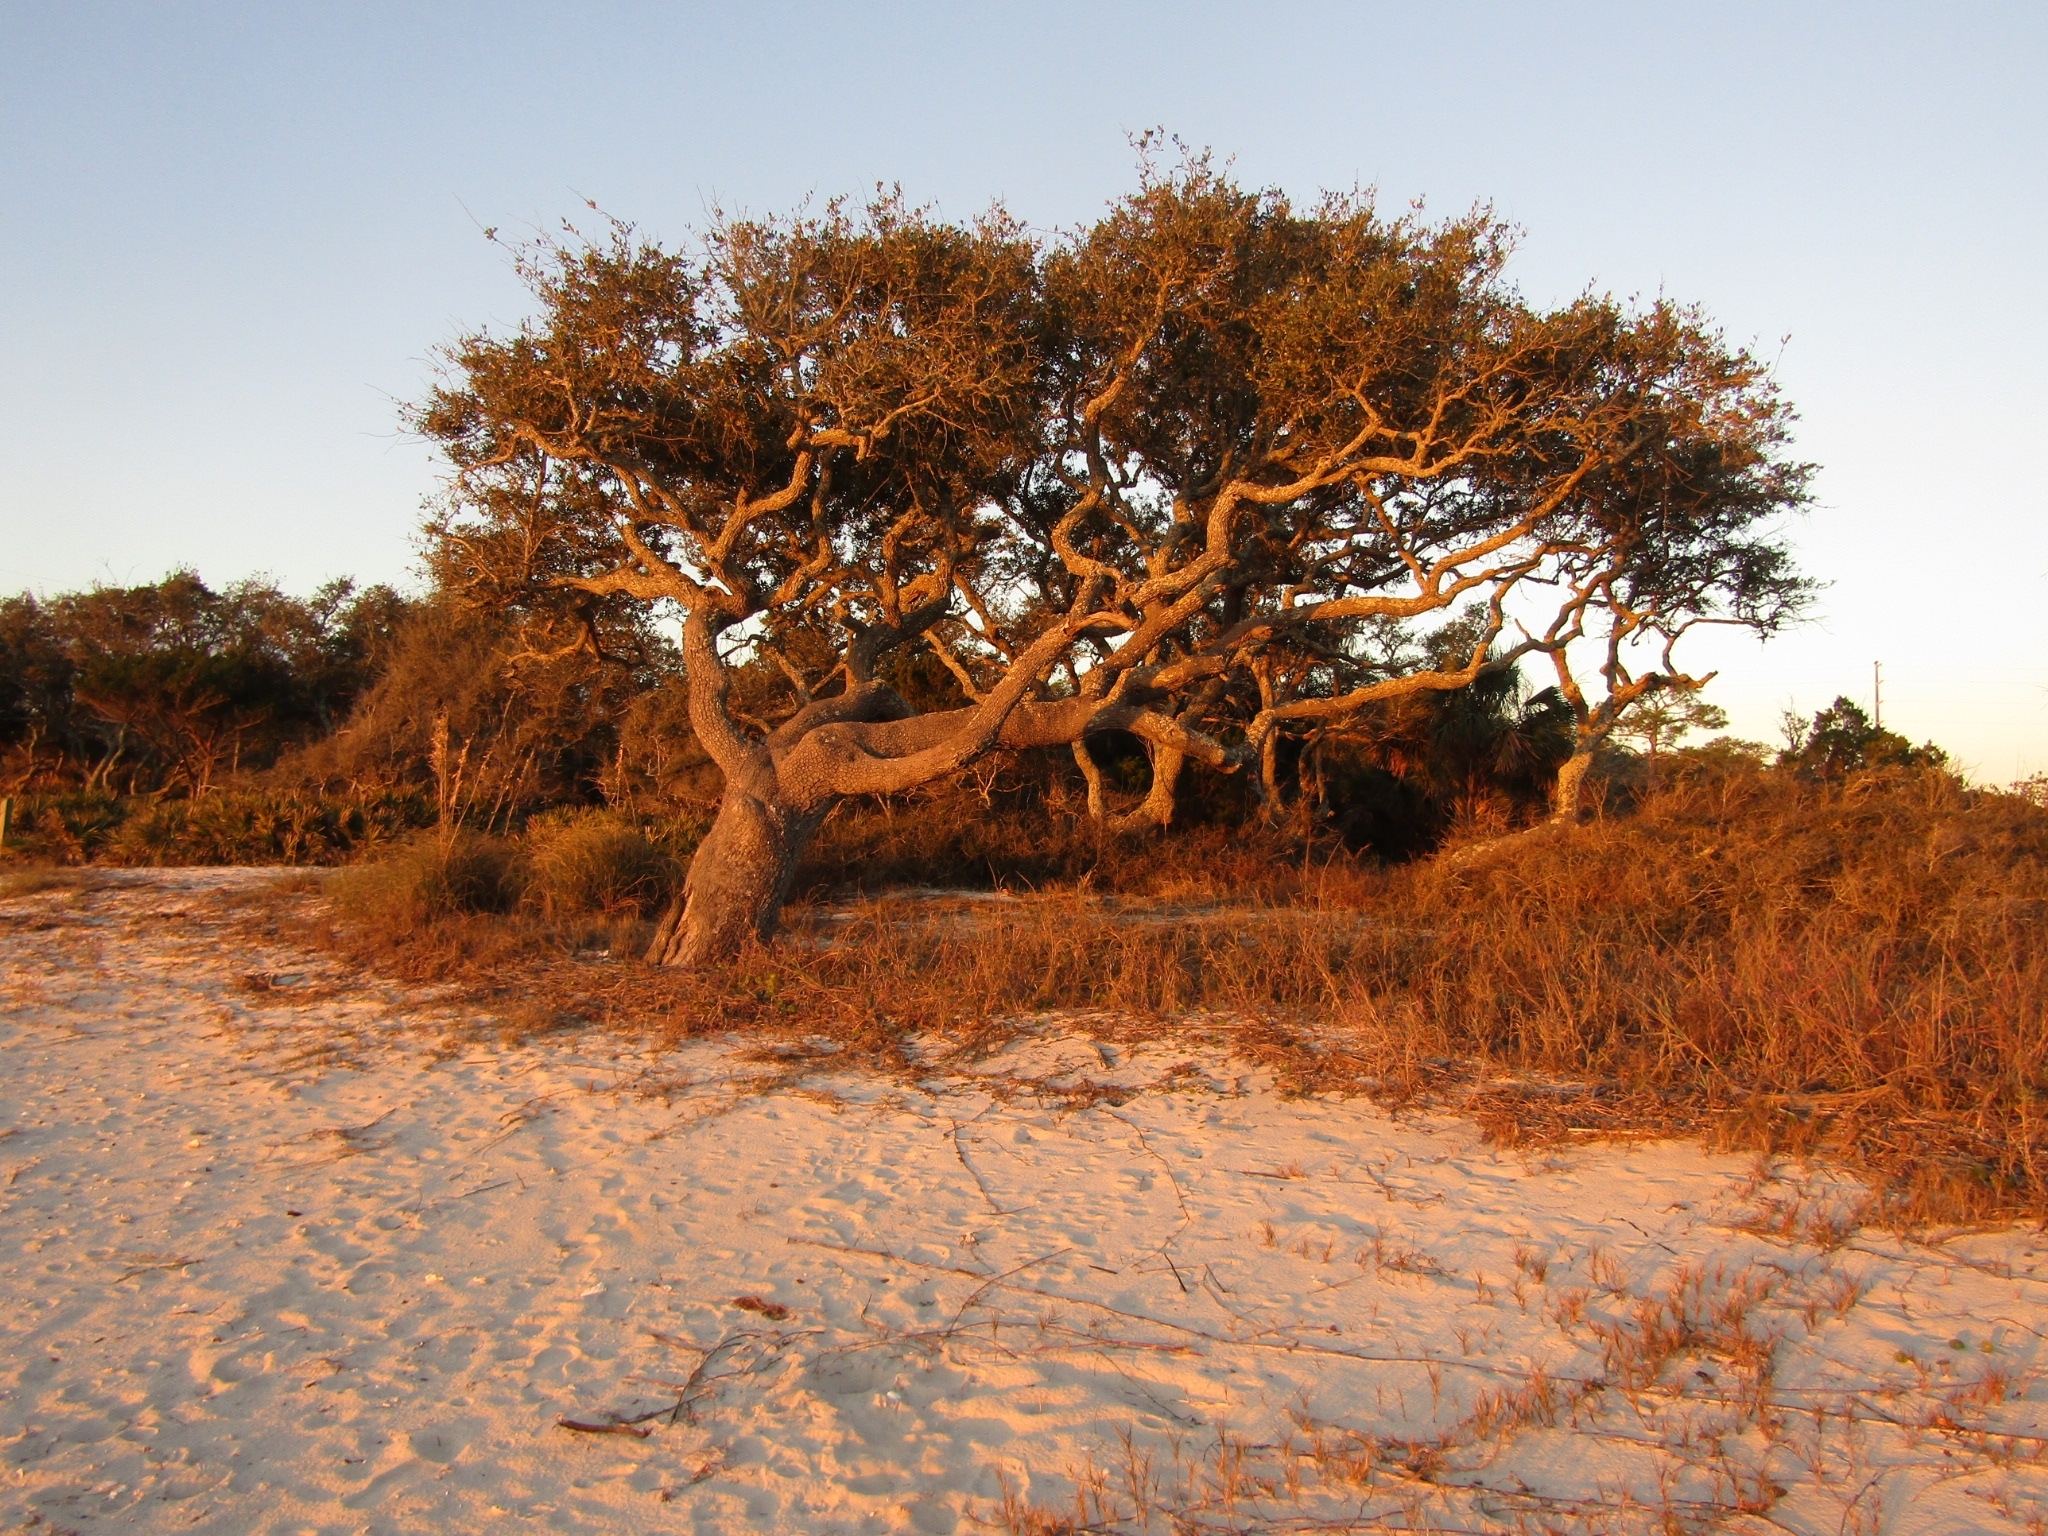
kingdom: Plantae
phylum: Tracheophyta
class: Magnoliopsida
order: Fagales
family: Fagaceae
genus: Quercus
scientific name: Quercus virginiana
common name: Southern live oak
